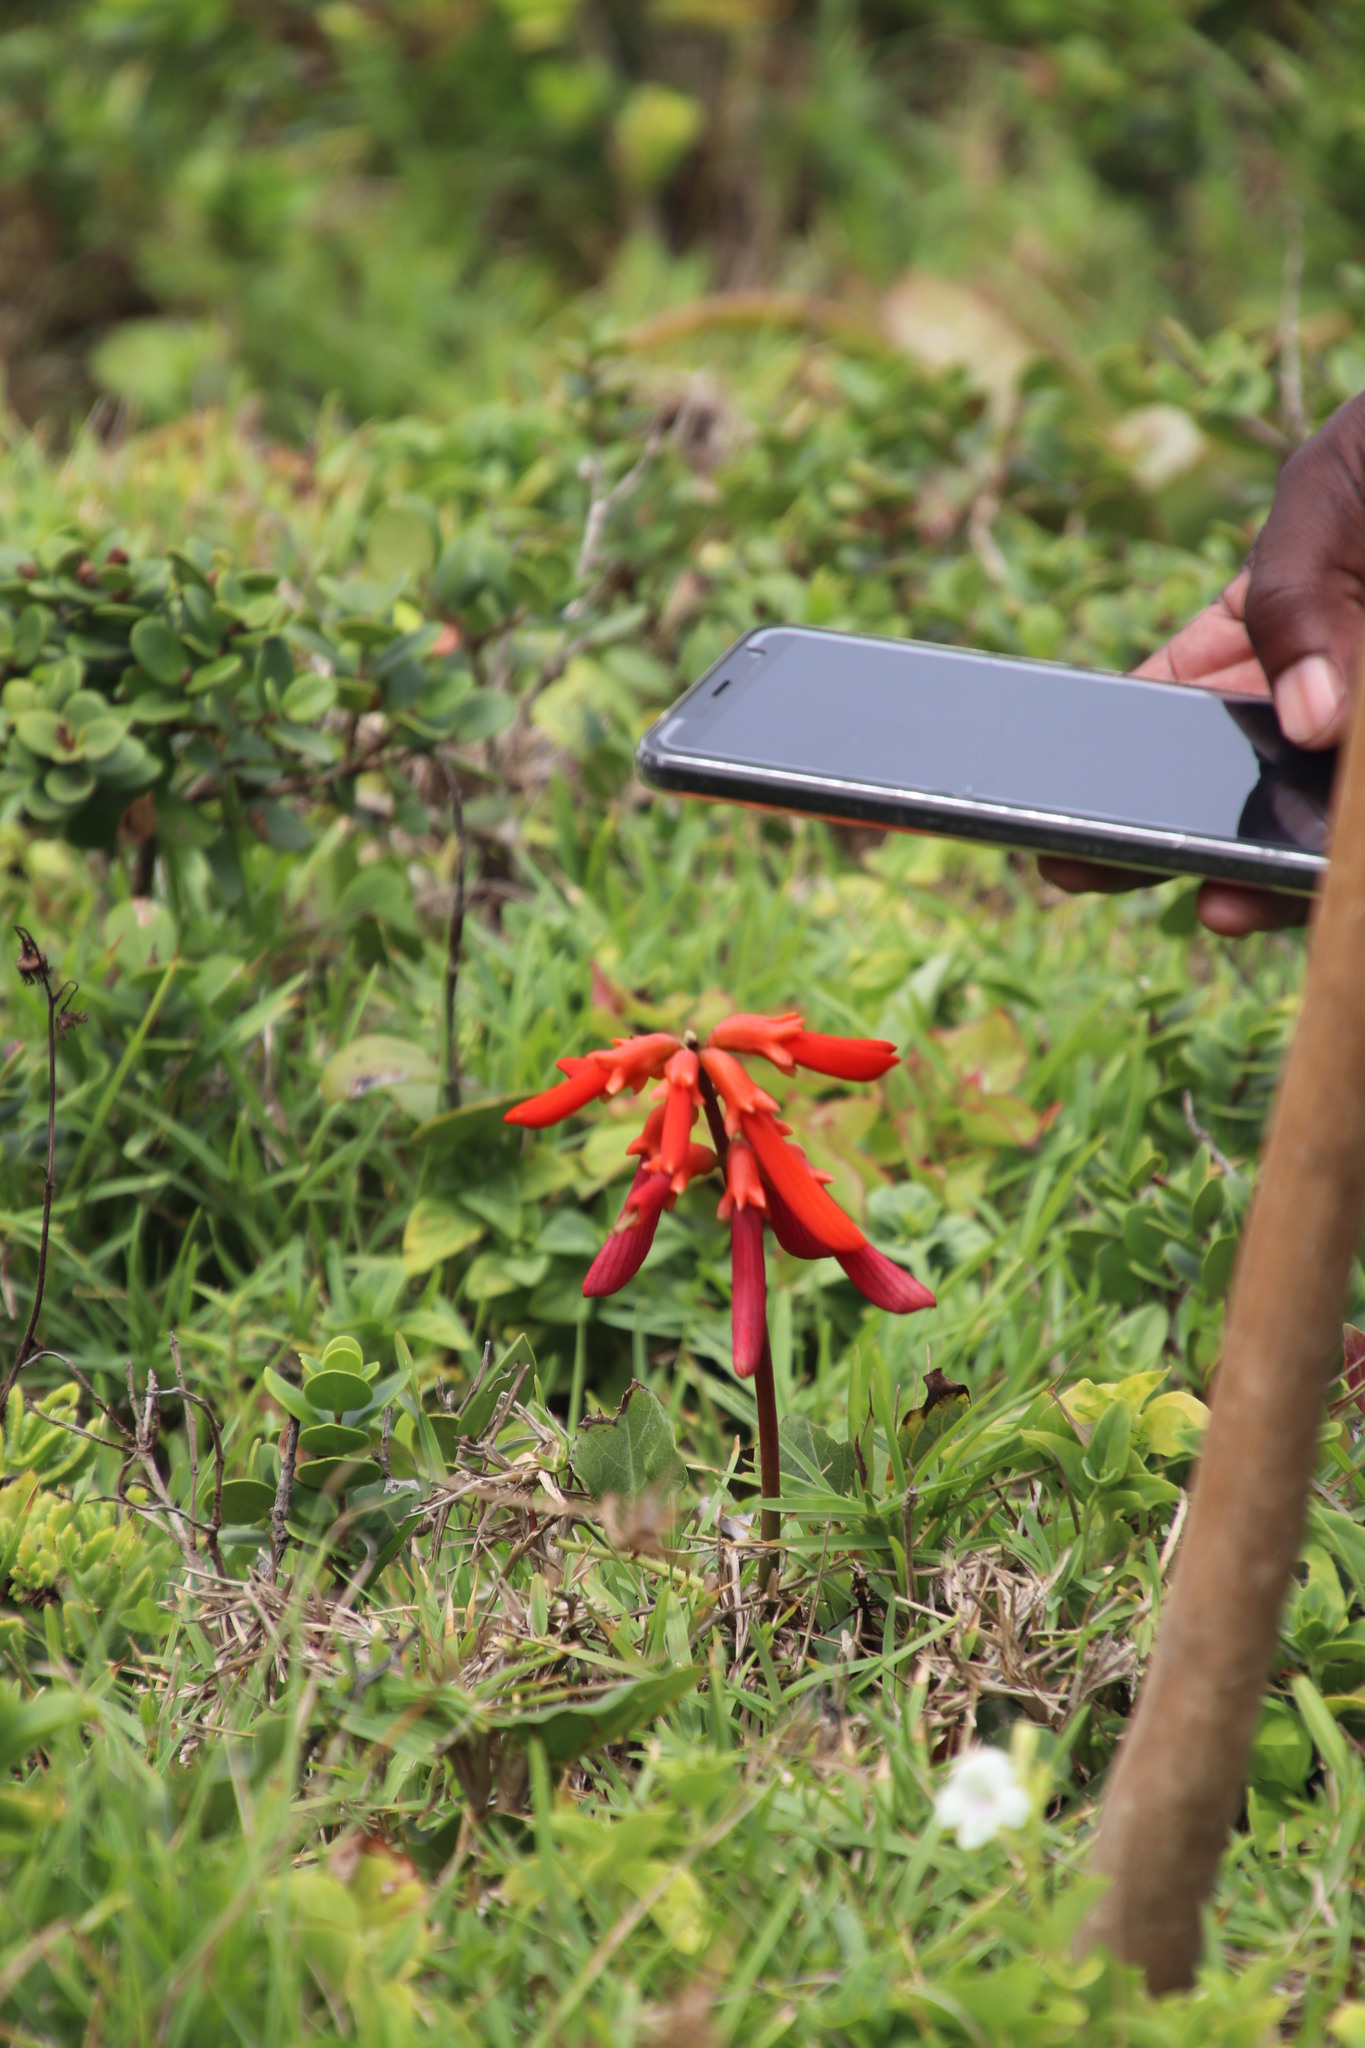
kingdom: Plantae
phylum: Tracheophyta
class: Magnoliopsida
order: Fabales
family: Fabaceae
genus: Erythrina
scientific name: Erythrina humeana
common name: Dwarf coral tree
